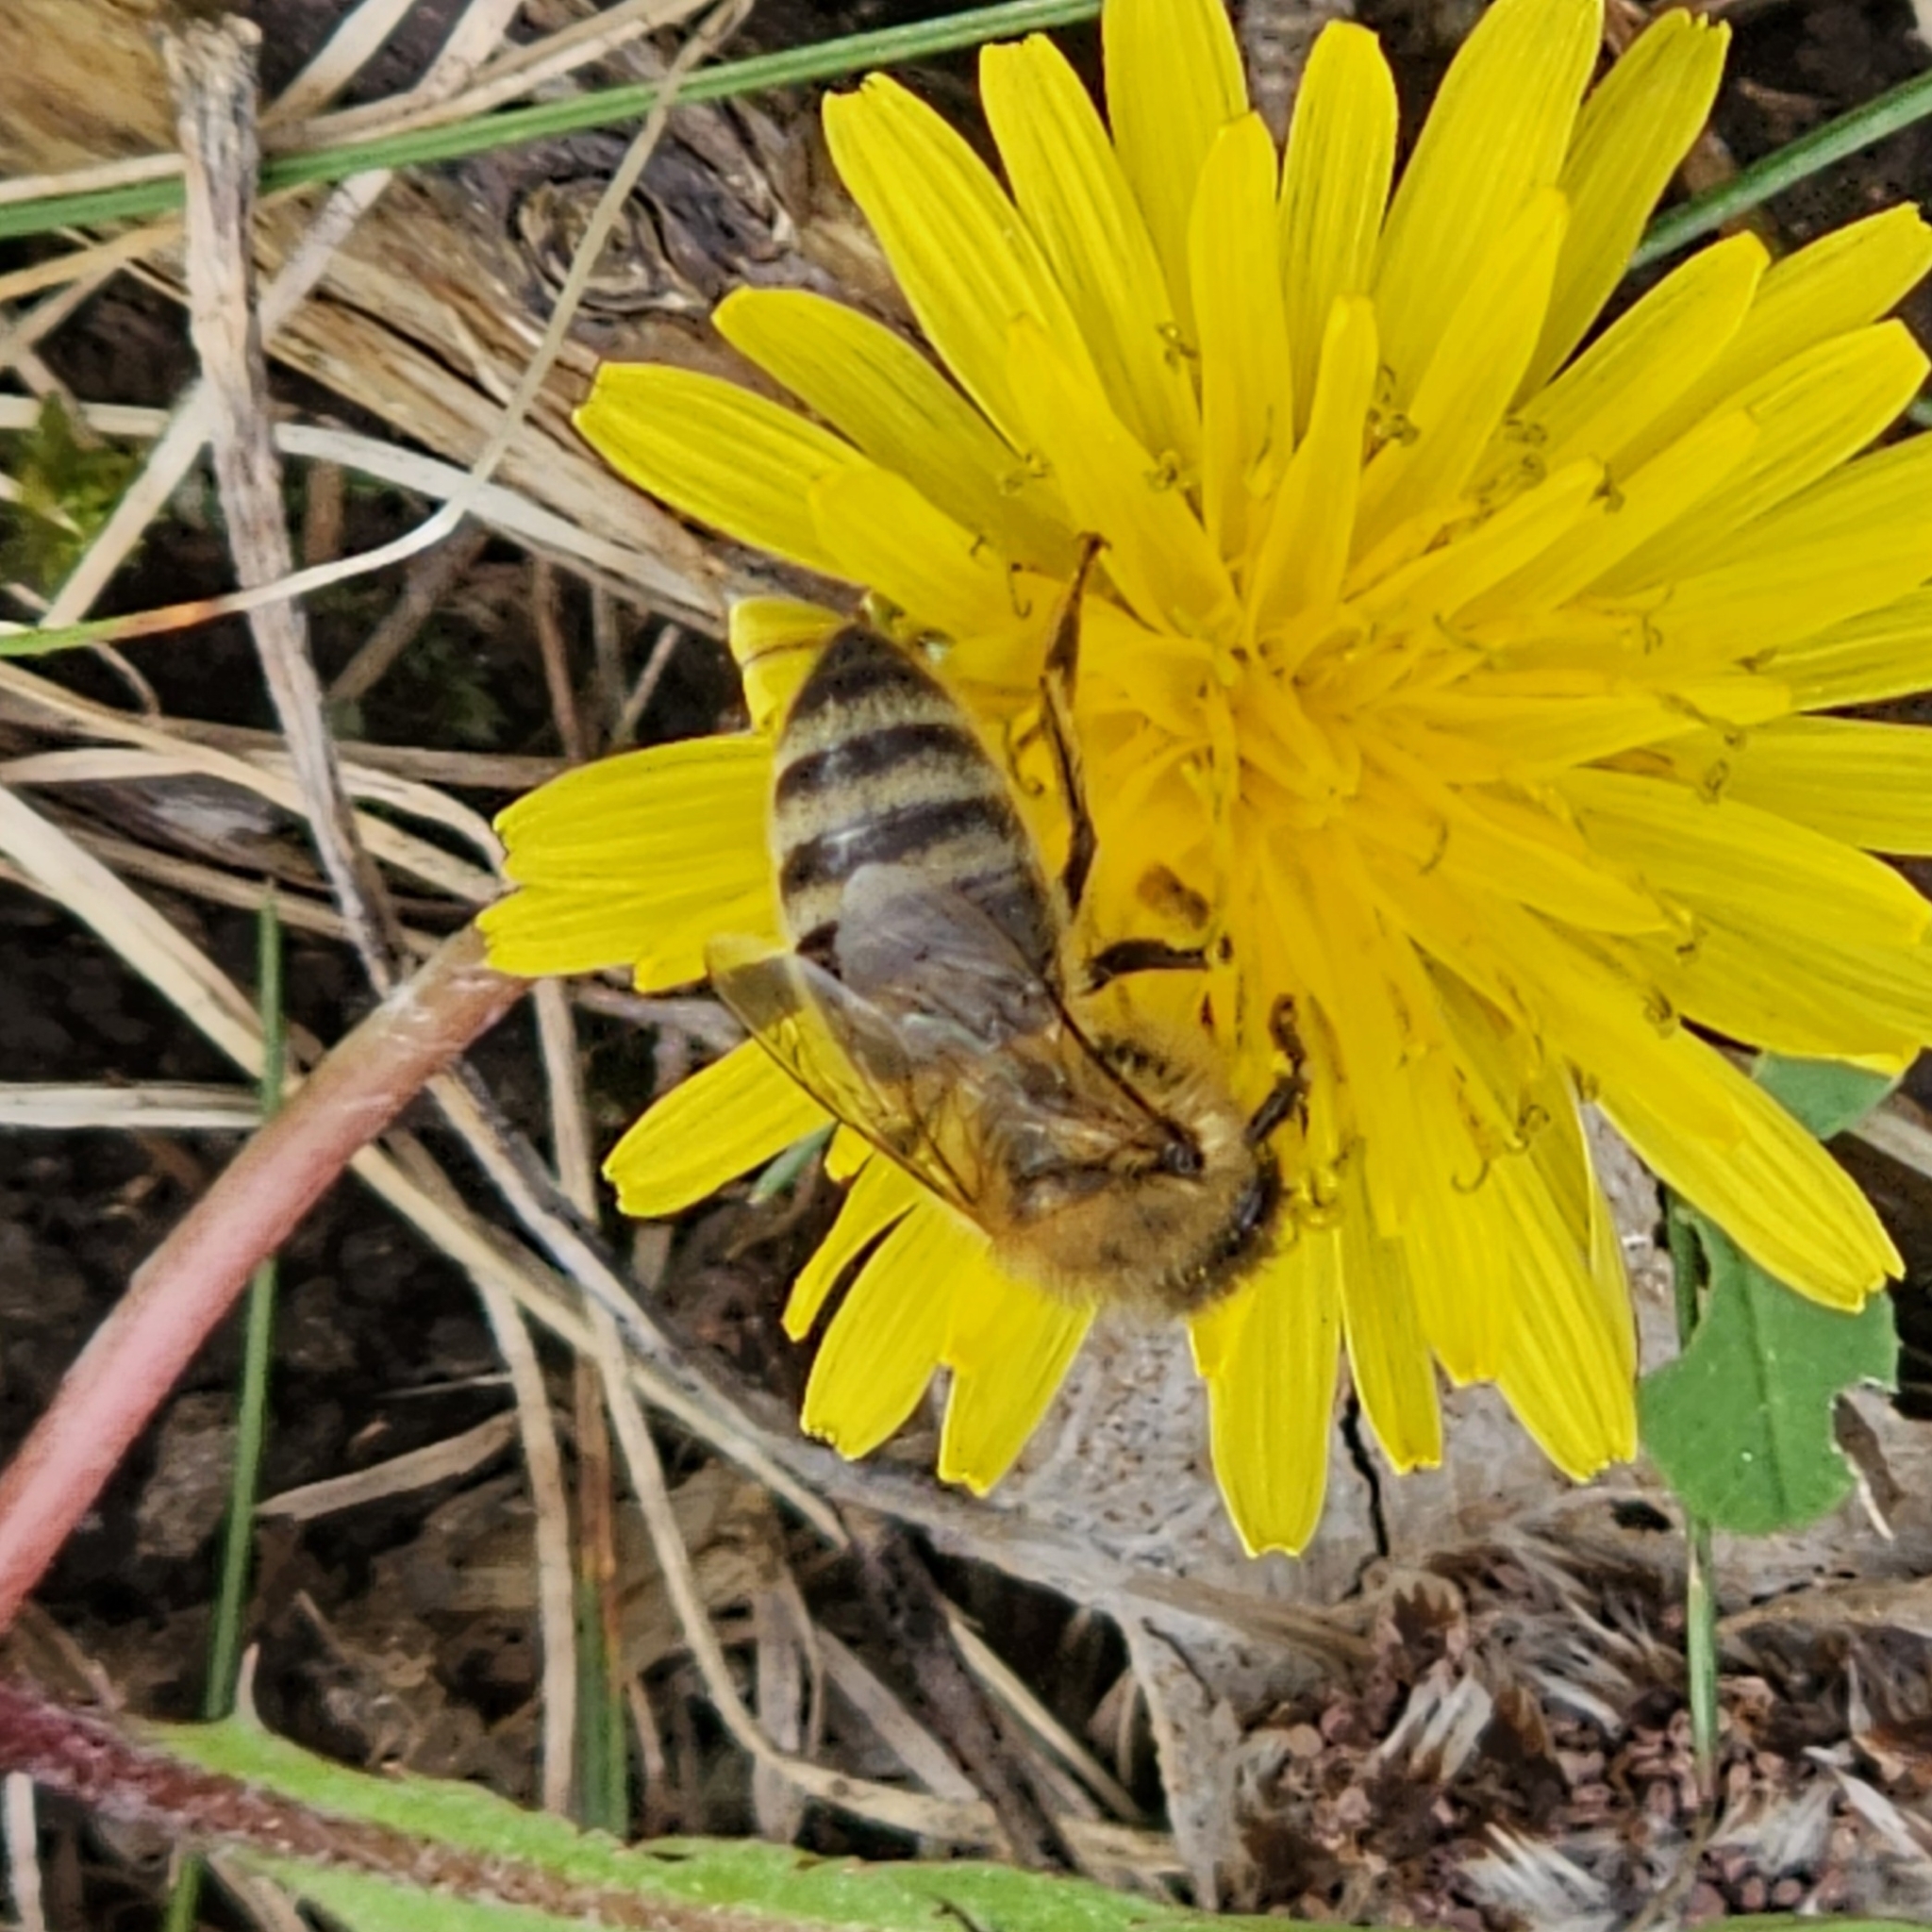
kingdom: Animalia
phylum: Arthropoda
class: Insecta
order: Hymenoptera
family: Apidae
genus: Apis
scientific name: Apis mellifera
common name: Honey bee
